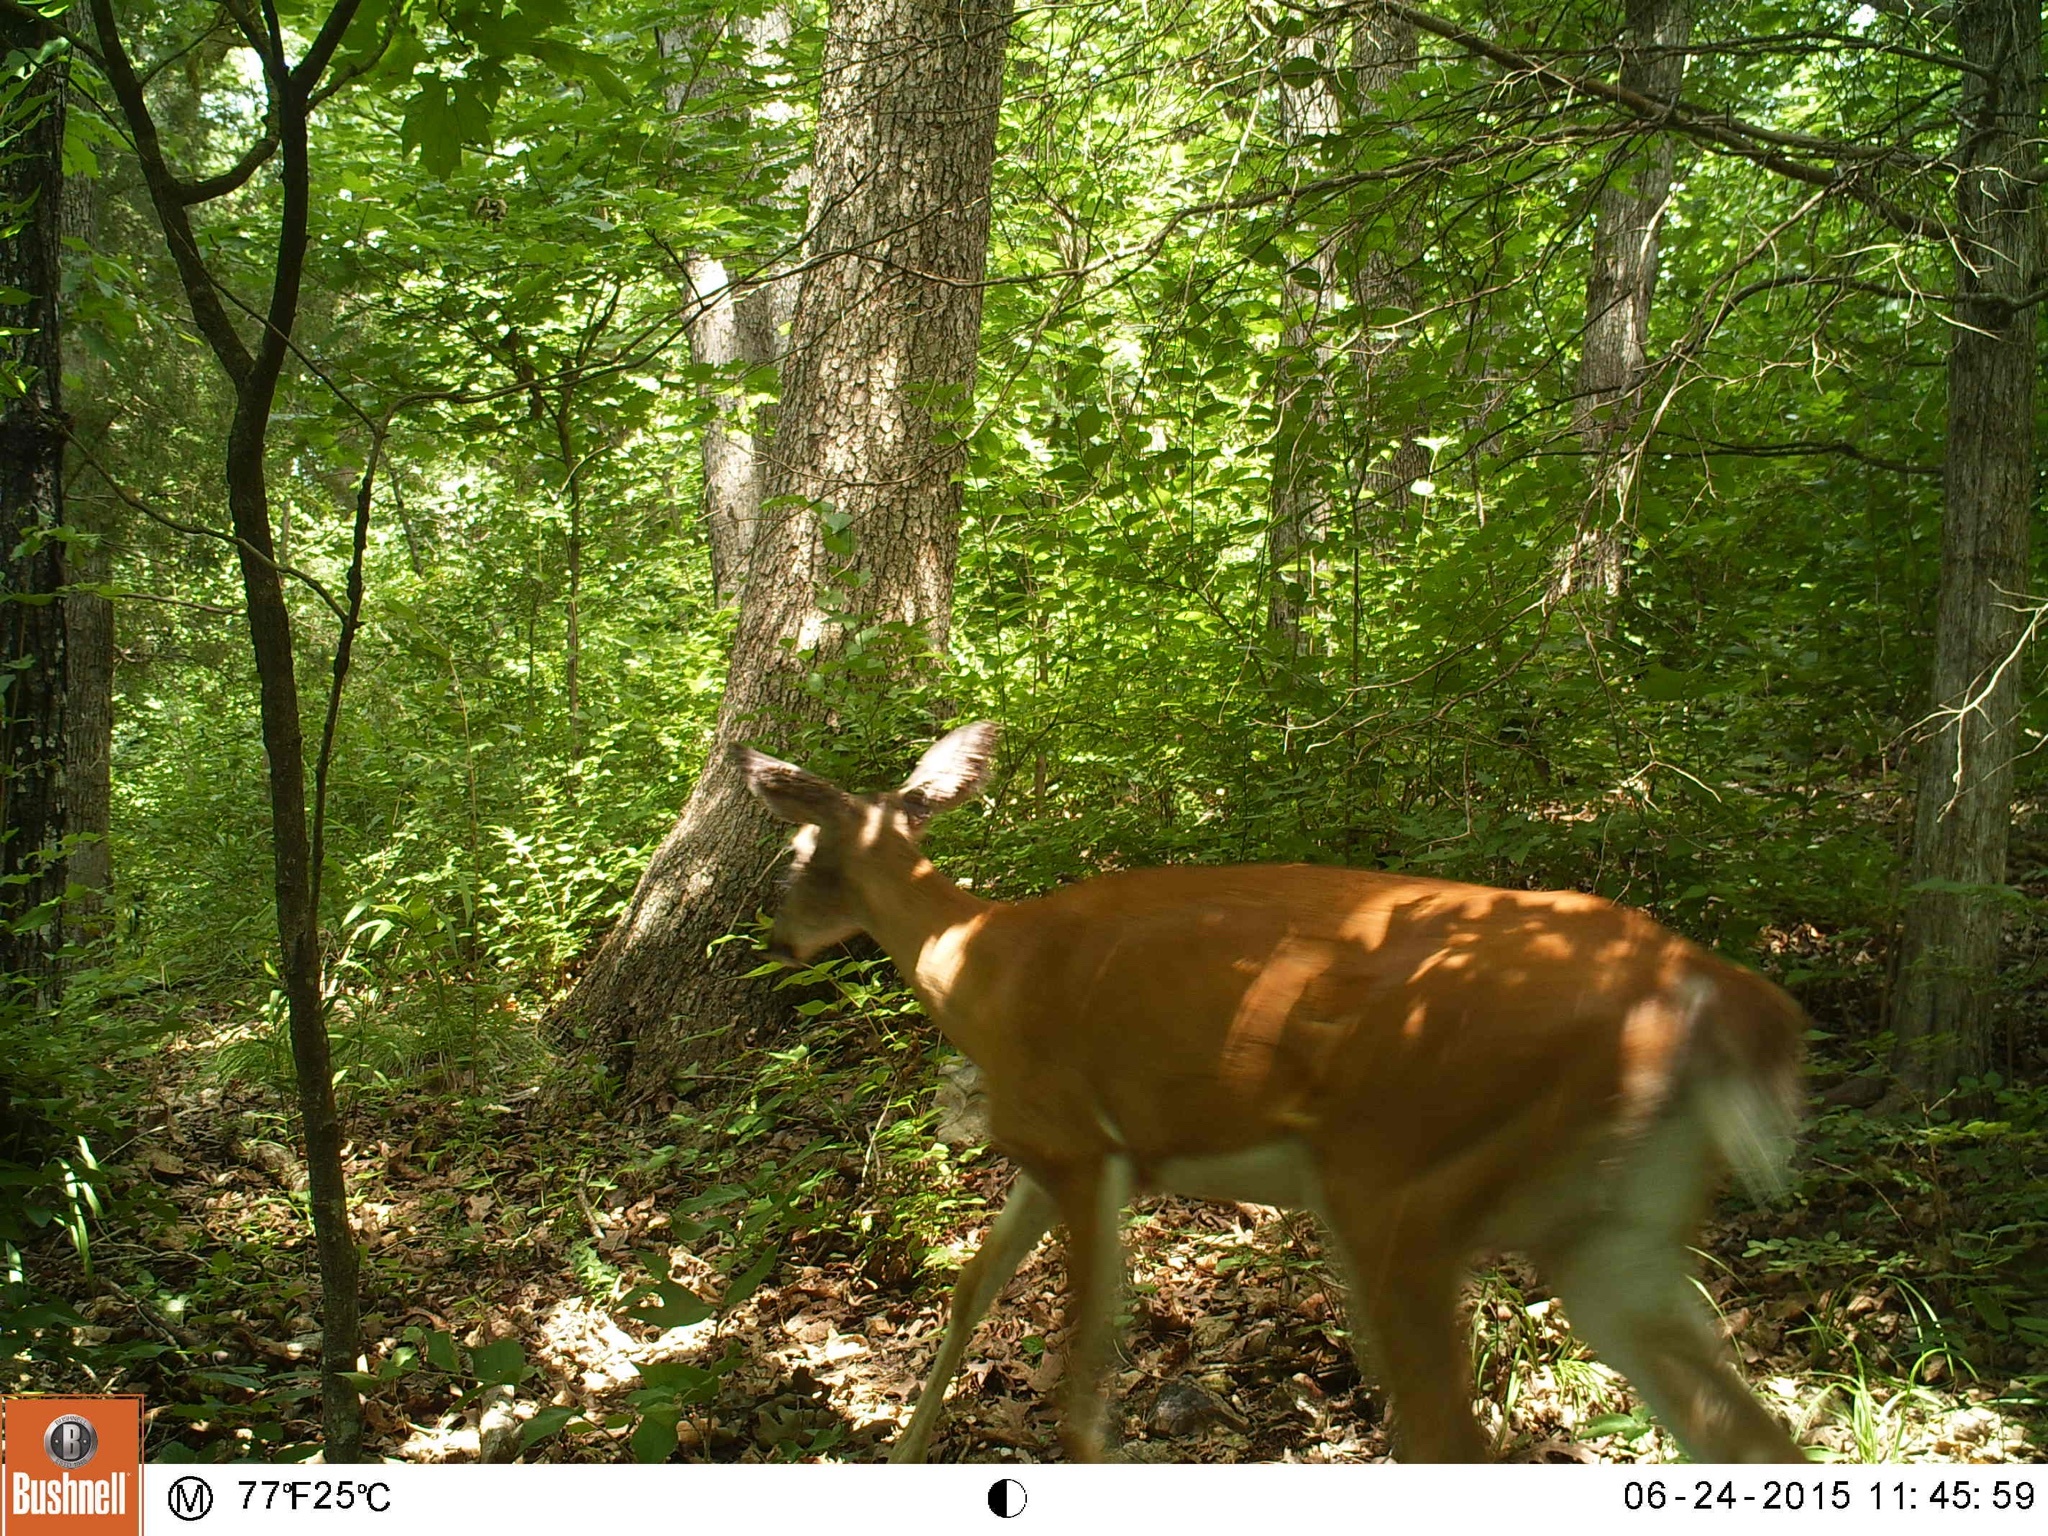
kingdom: Animalia
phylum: Chordata
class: Mammalia
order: Artiodactyla
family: Cervidae
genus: Odocoileus
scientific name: Odocoileus virginianus
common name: White-tailed deer
